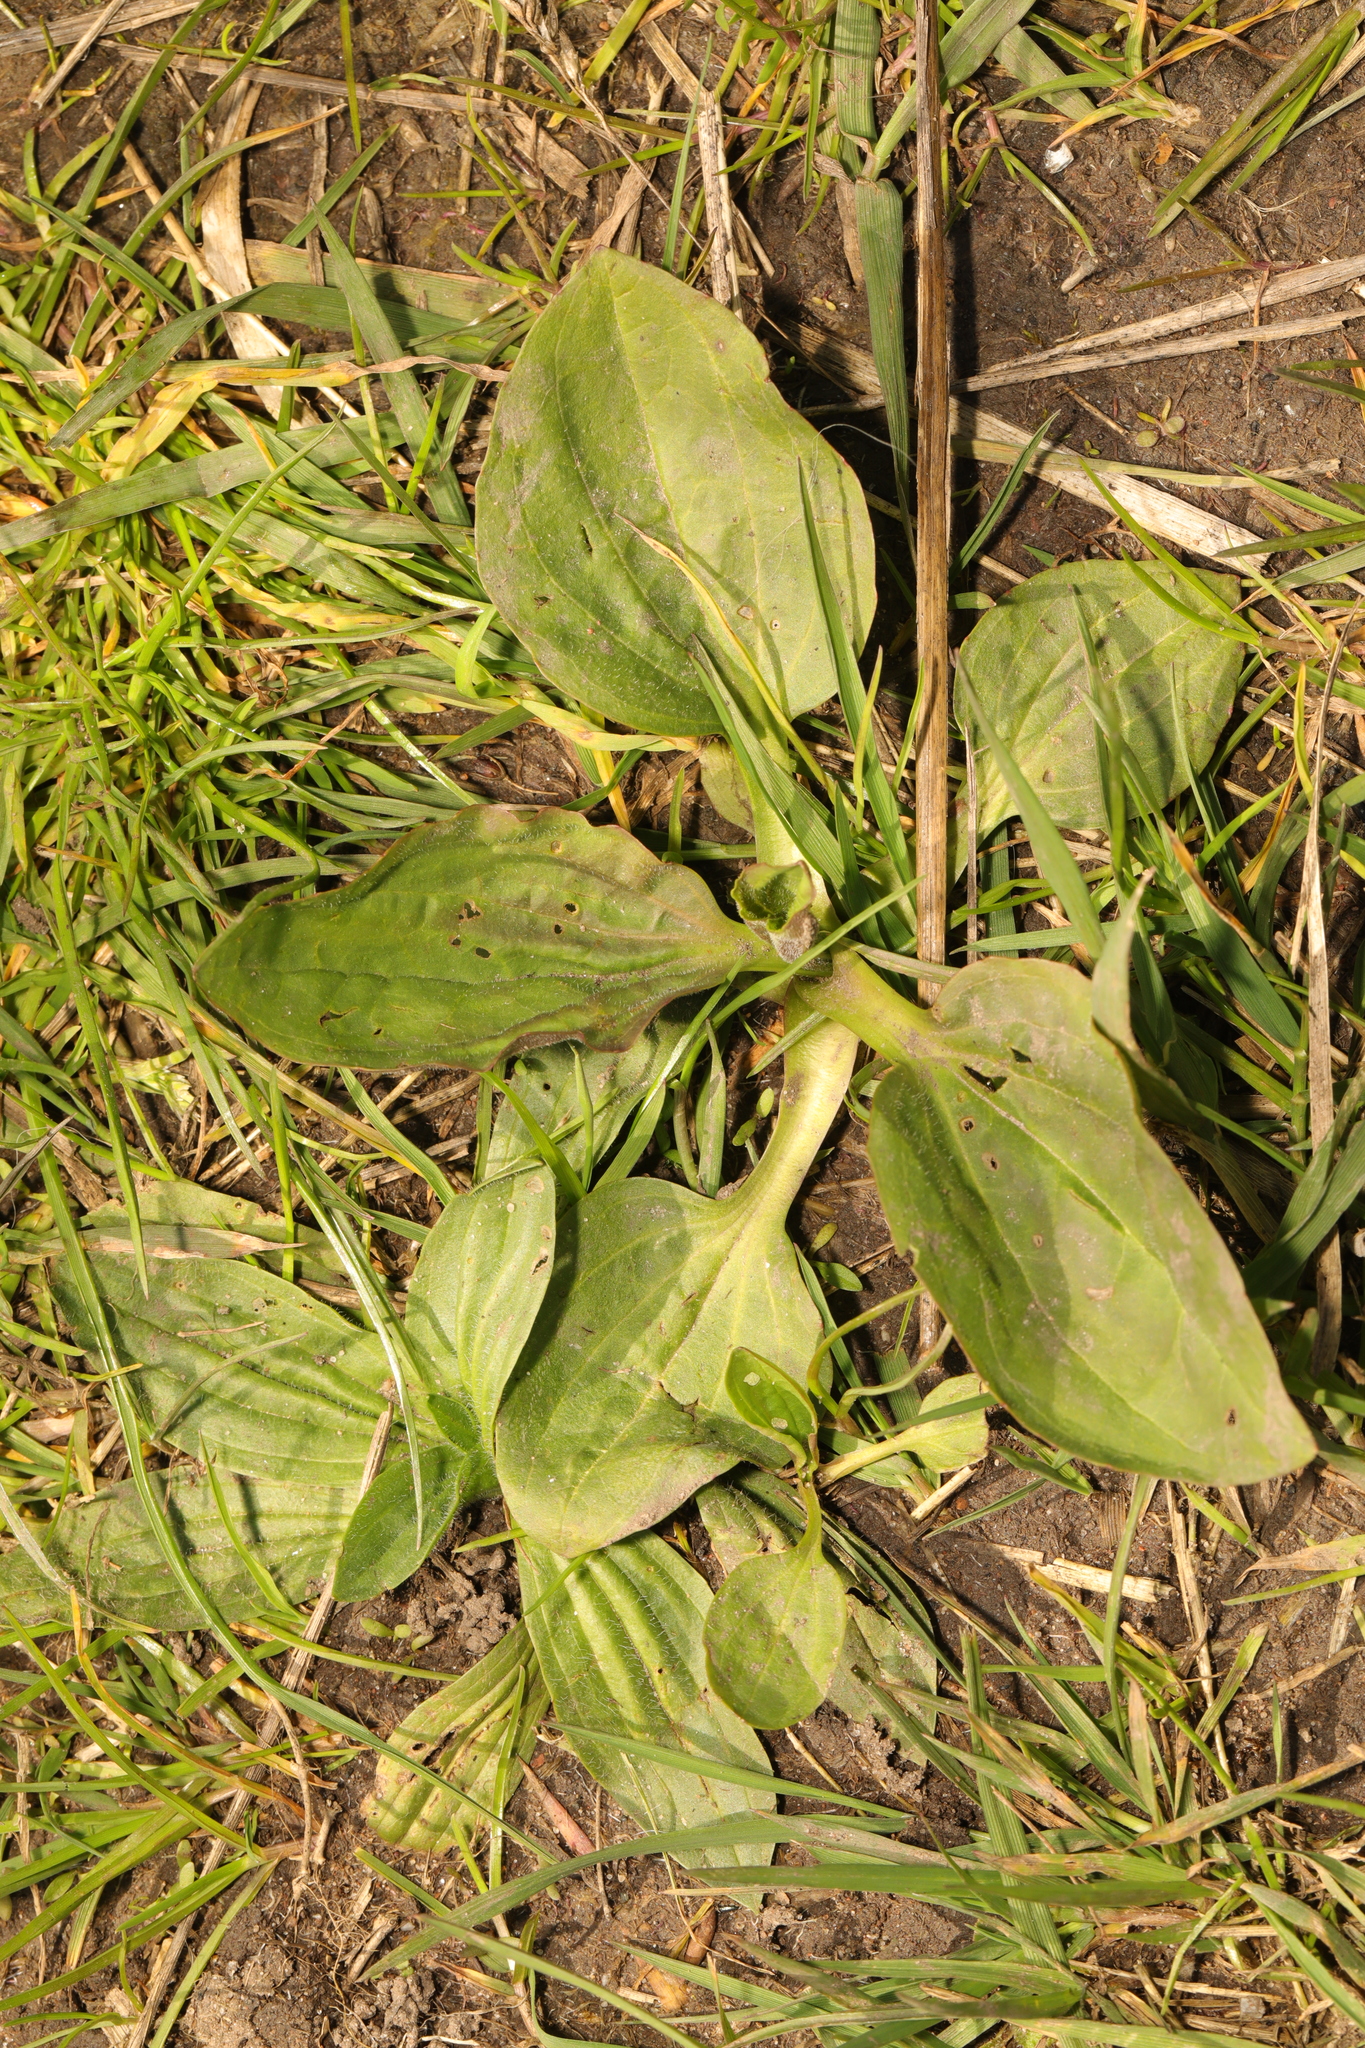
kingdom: Plantae
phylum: Tracheophyta
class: Magnoliopsida
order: Lamiales
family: Plantaginaceae
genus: Plantago
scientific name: Plantago major
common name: Common plantain
